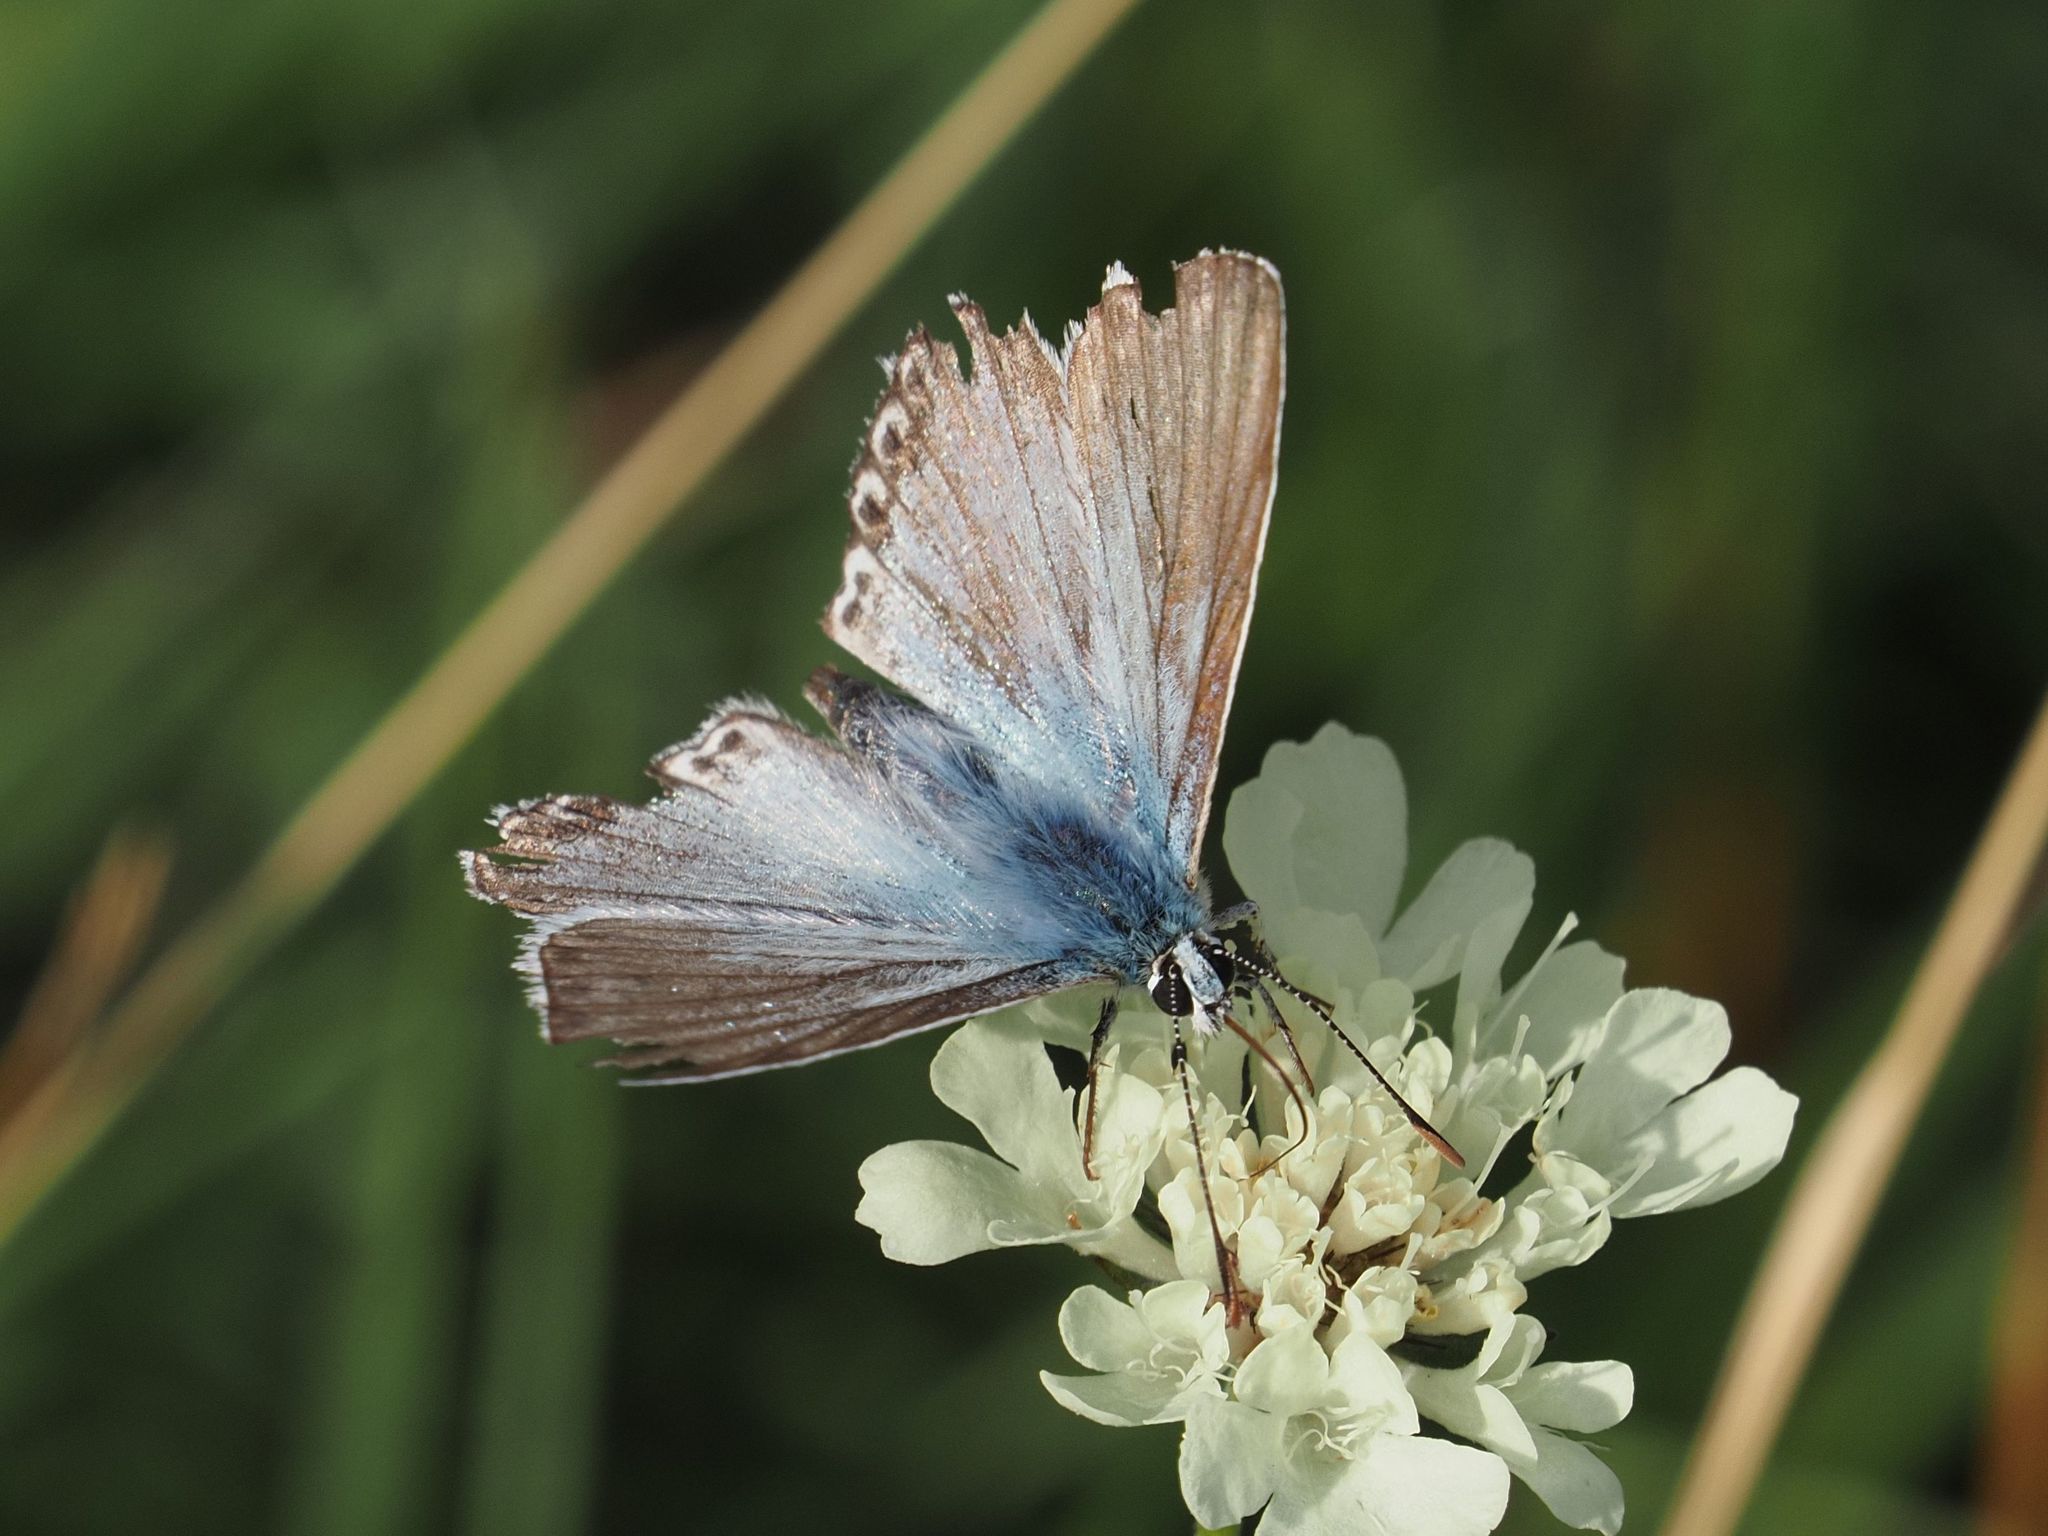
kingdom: Animalia
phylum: Arthropoda
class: Insecta
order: Lepidoptera
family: Lycaenidae
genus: Lysandra
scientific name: Lysandra coridon
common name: Chalkhill blue
